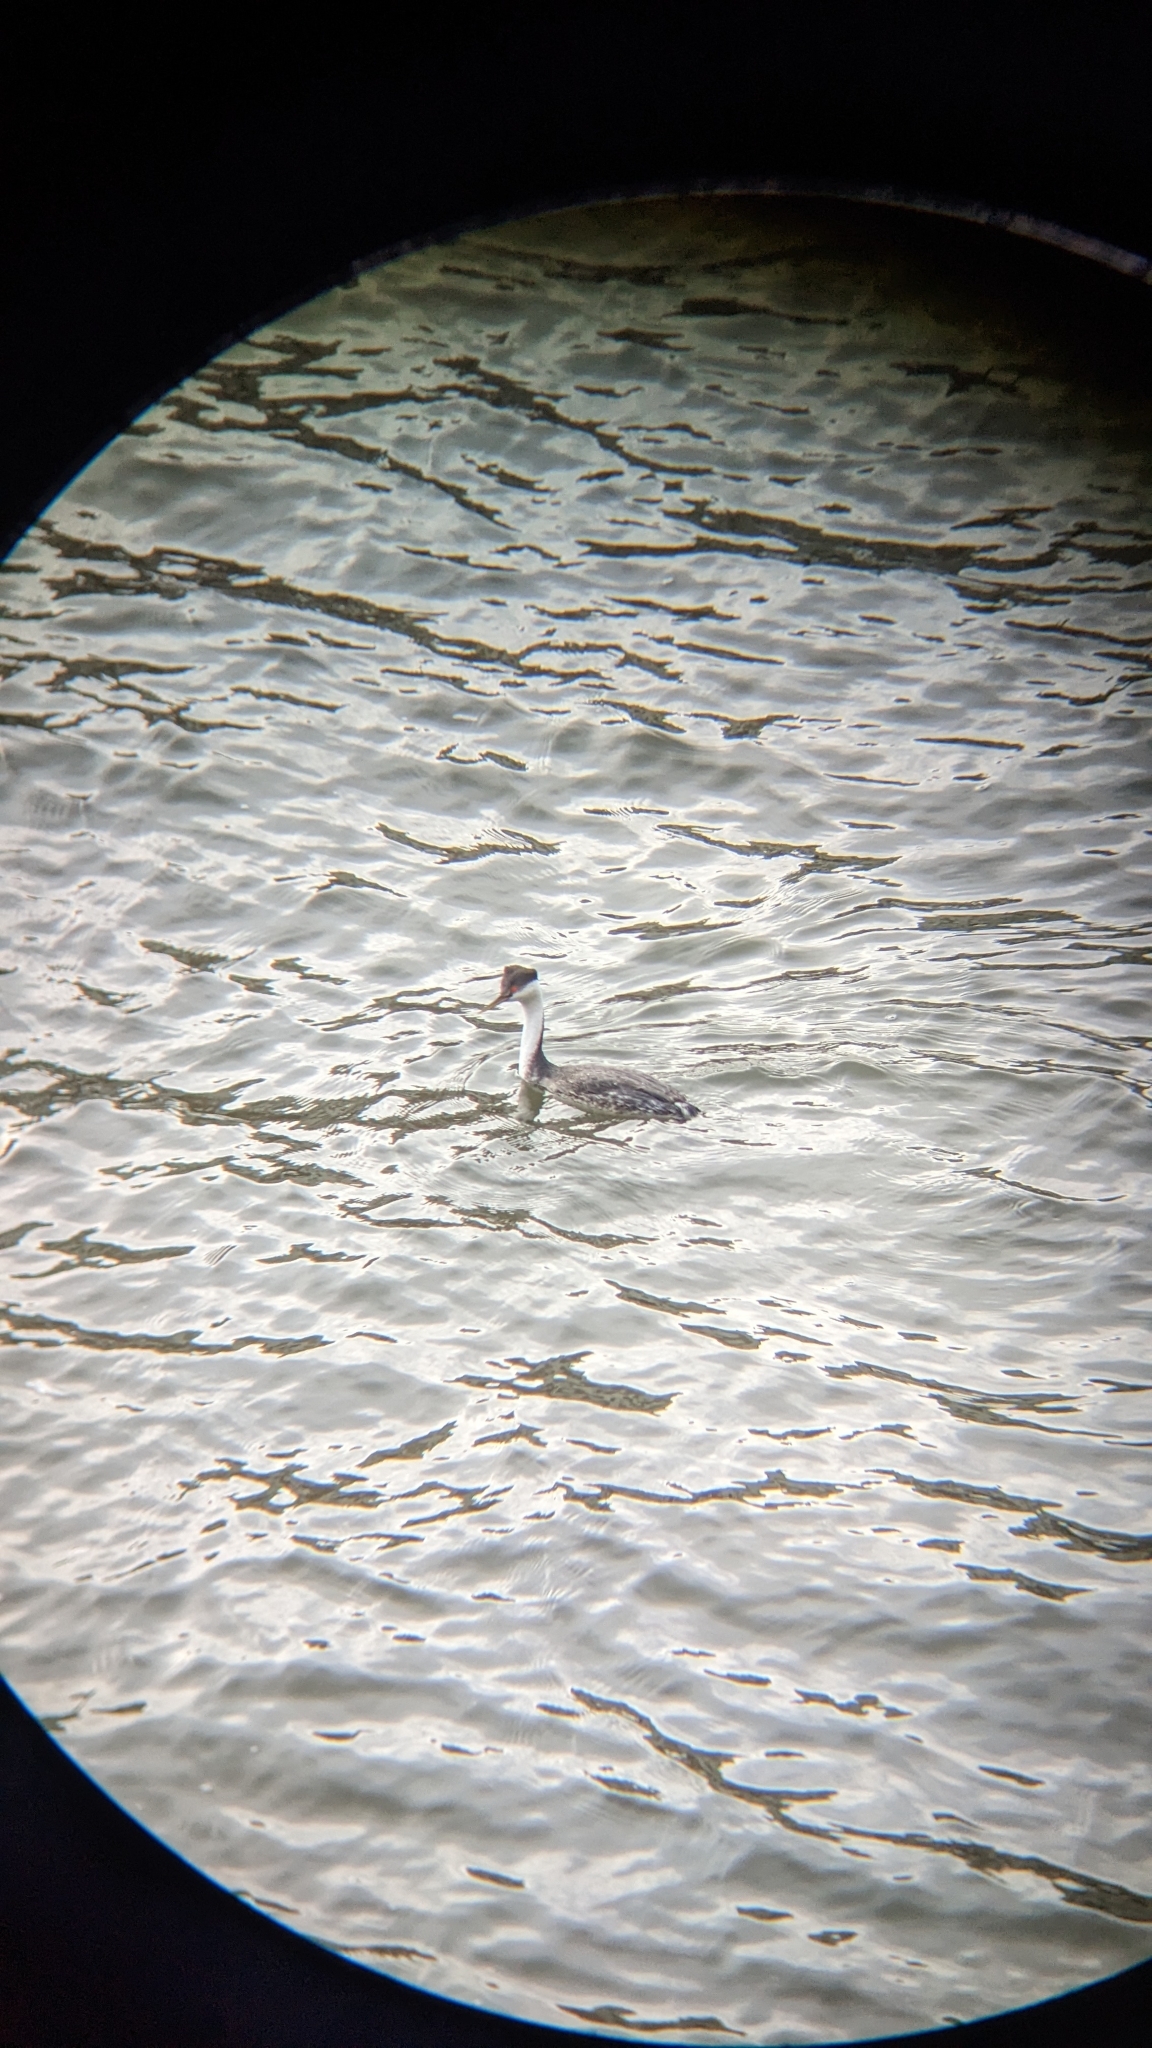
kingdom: Animalia
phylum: Chordata
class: Aves
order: Podicipediformes
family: Podicipedidae
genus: Aechmophorus
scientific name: Aechmophorus occidentalis
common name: Western grebe
